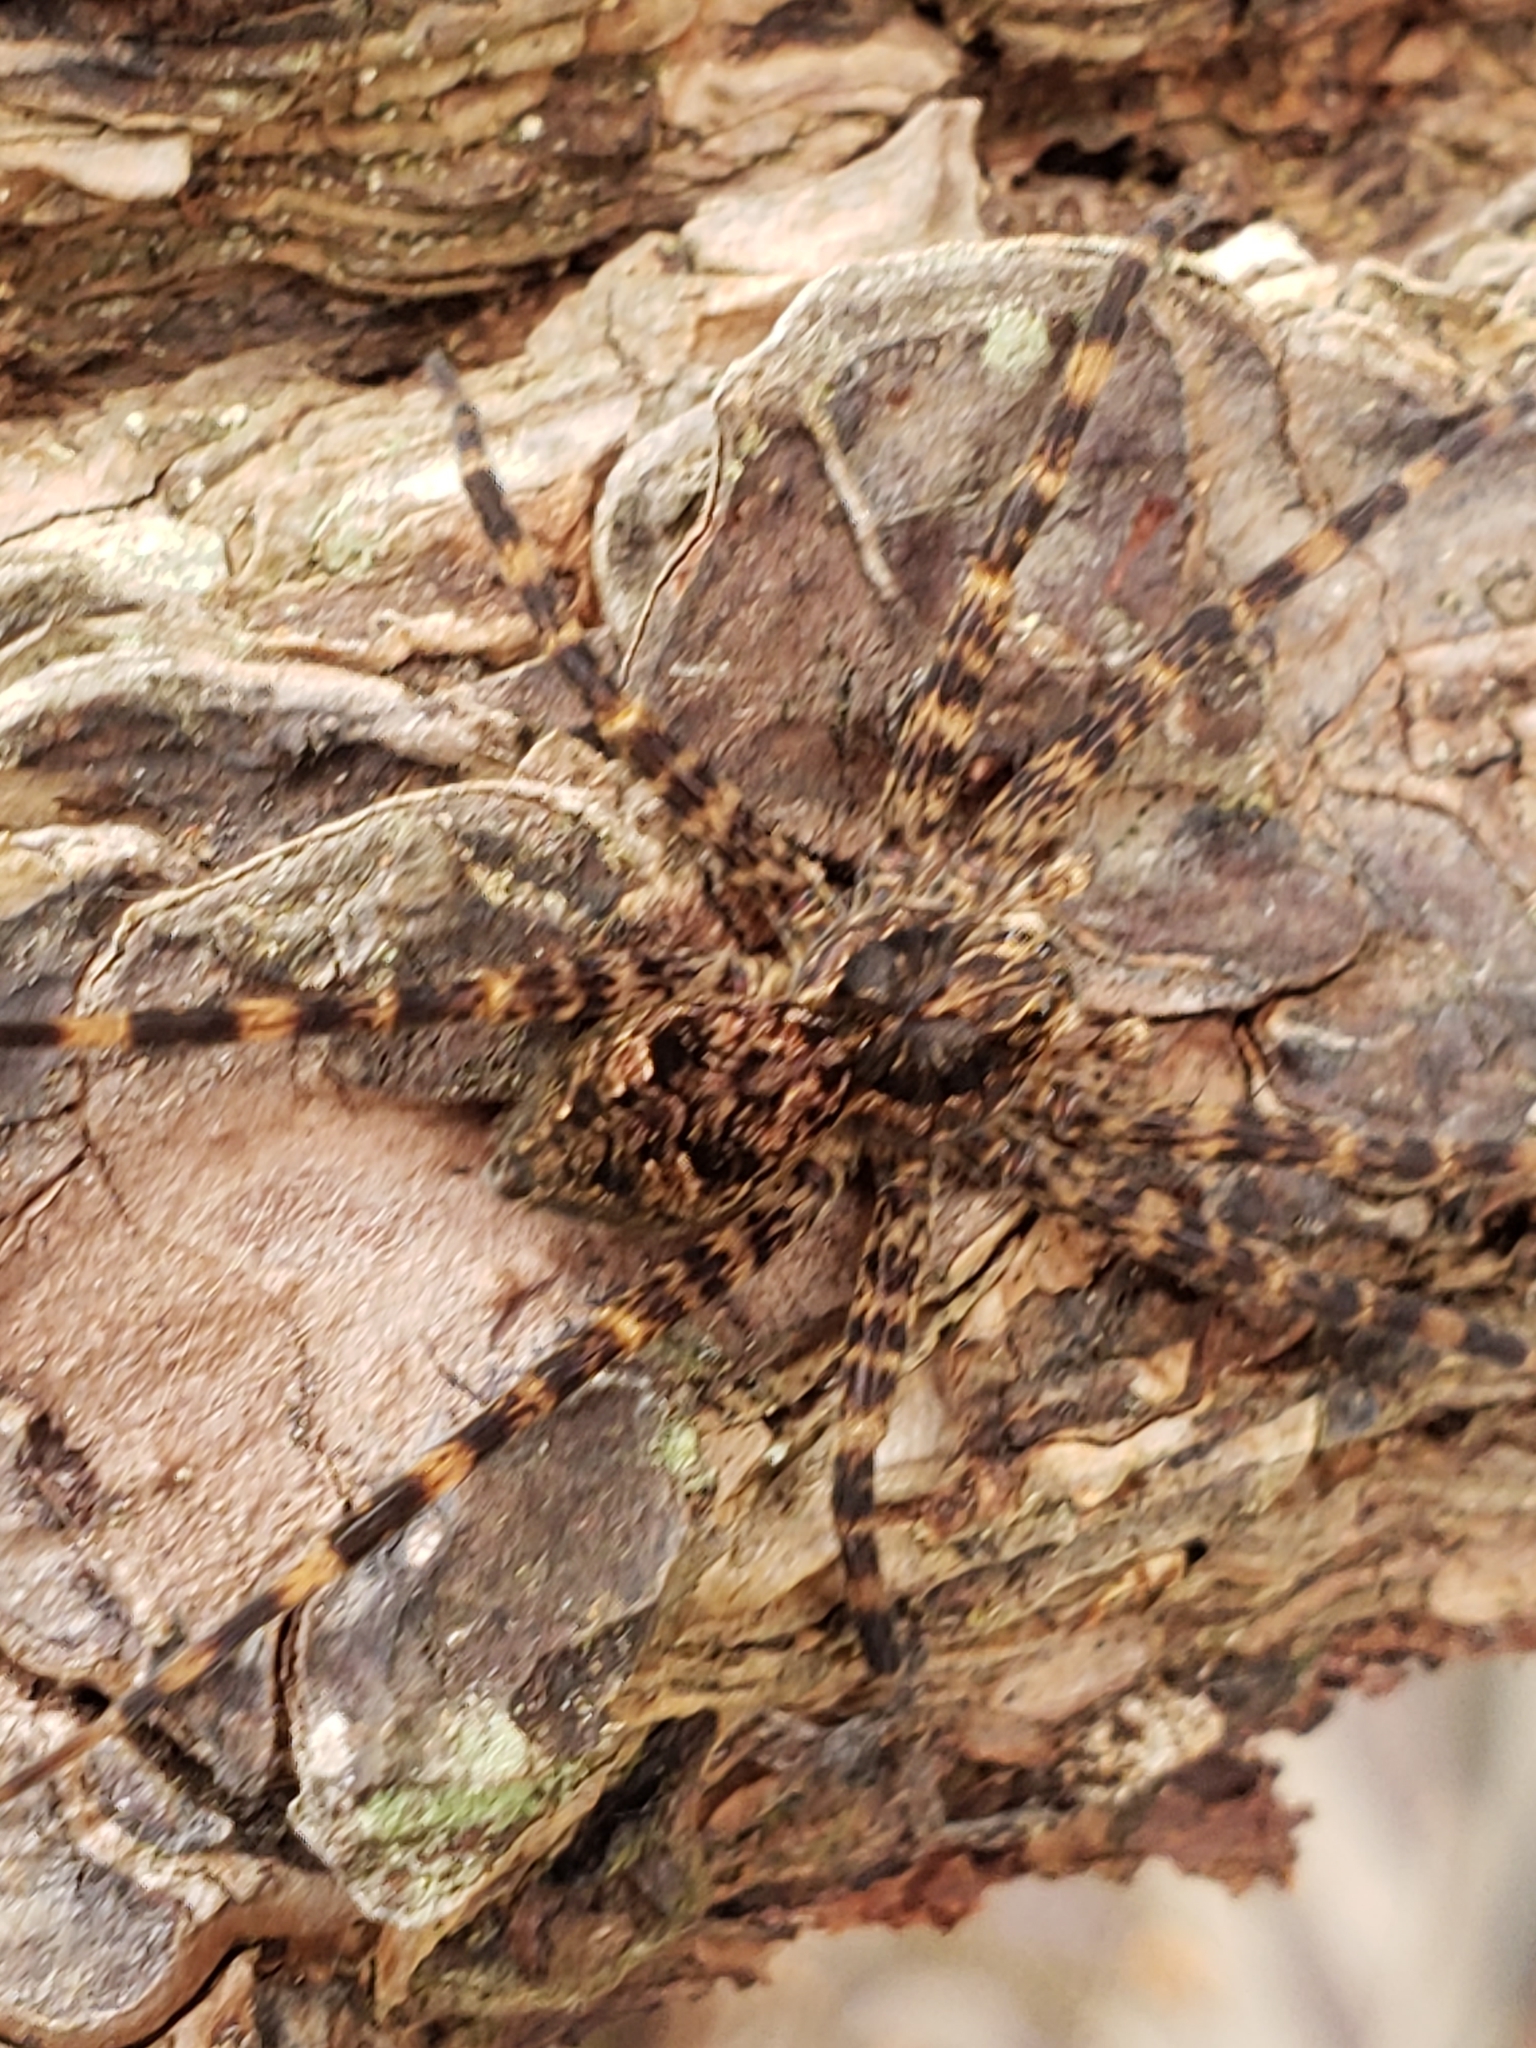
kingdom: Animalia
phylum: Arthropoda
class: Arachnida
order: Araneae
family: Pisauridae
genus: Dolomedes
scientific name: Dolomedes tenebrosus
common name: Dark fishing spider
